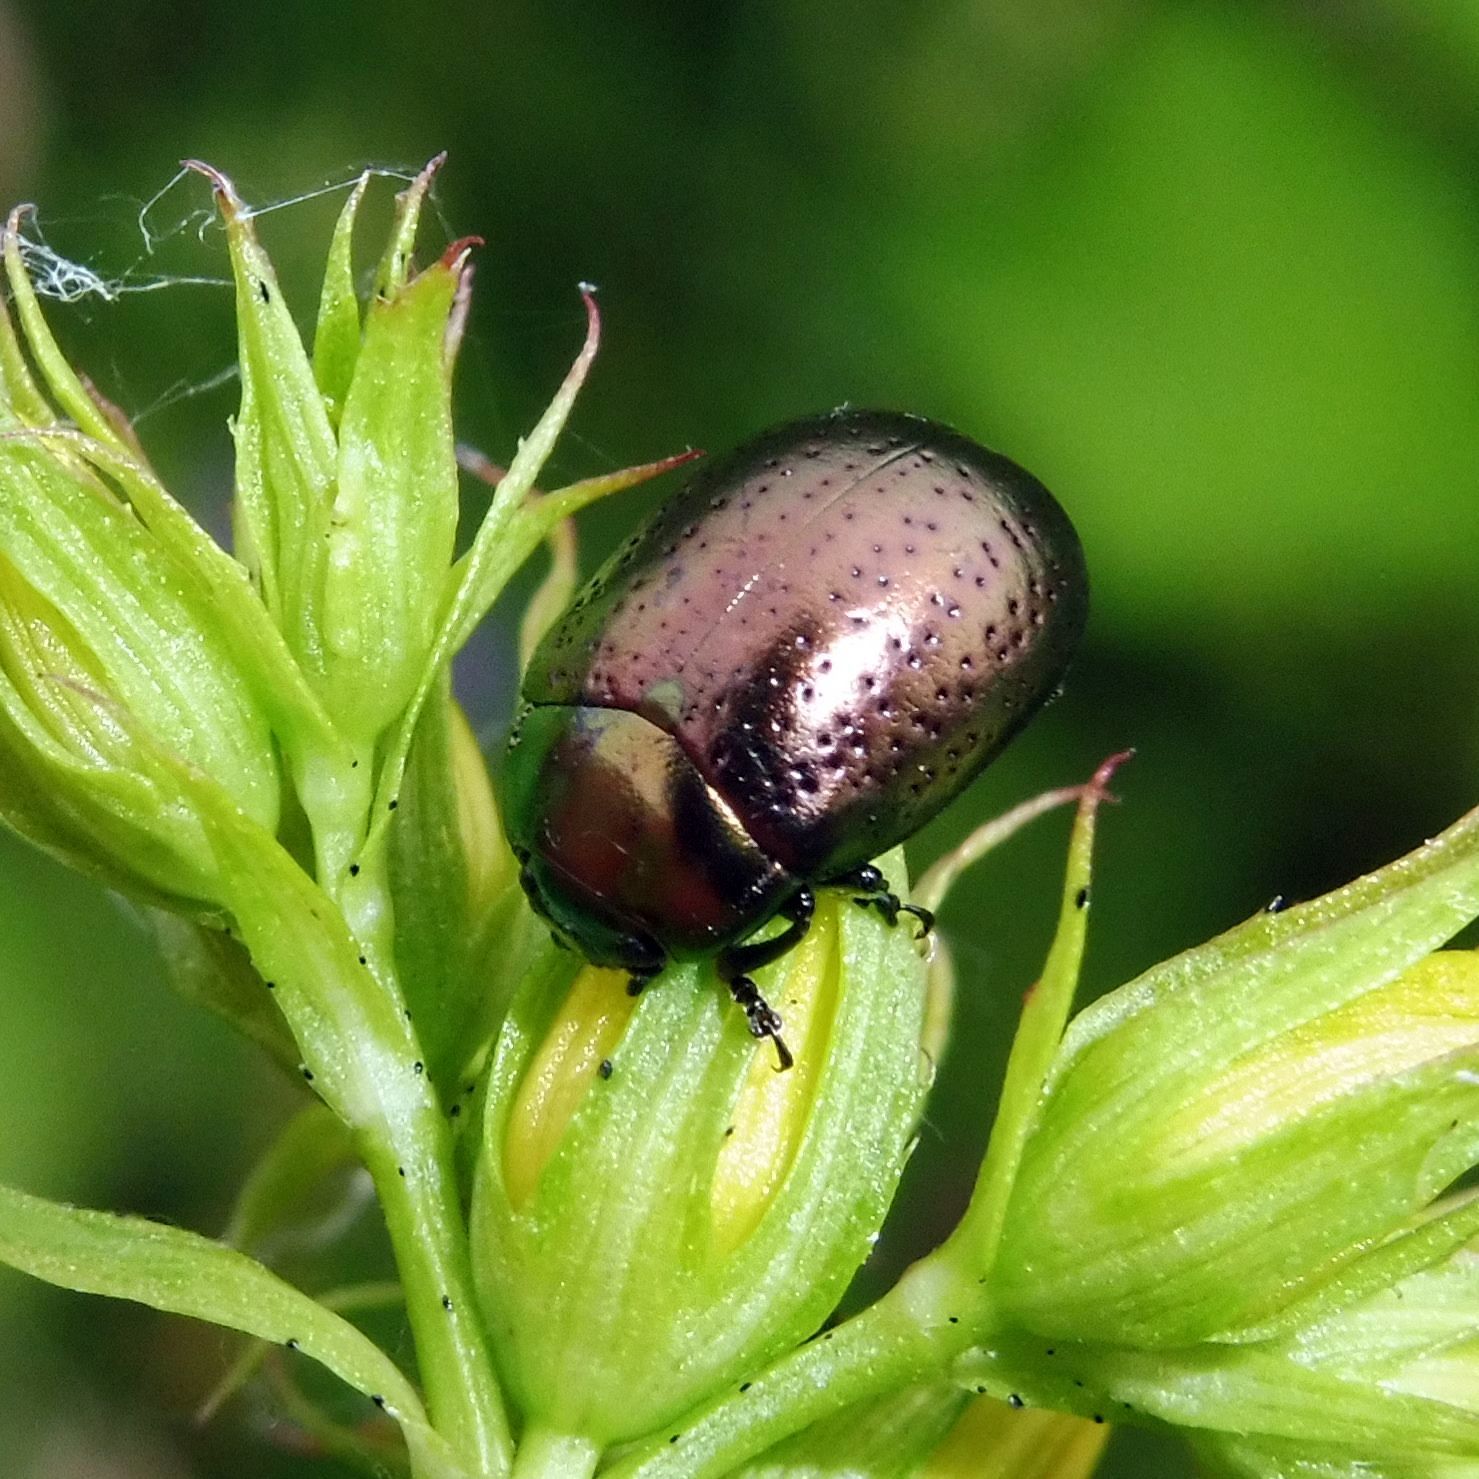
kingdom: Animalia
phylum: Arthropoda
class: Insecta
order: Coleoptera
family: Chrysomelidae
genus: Chrysolina
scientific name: Chrysolina hyperici
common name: St. johnswort beetle
